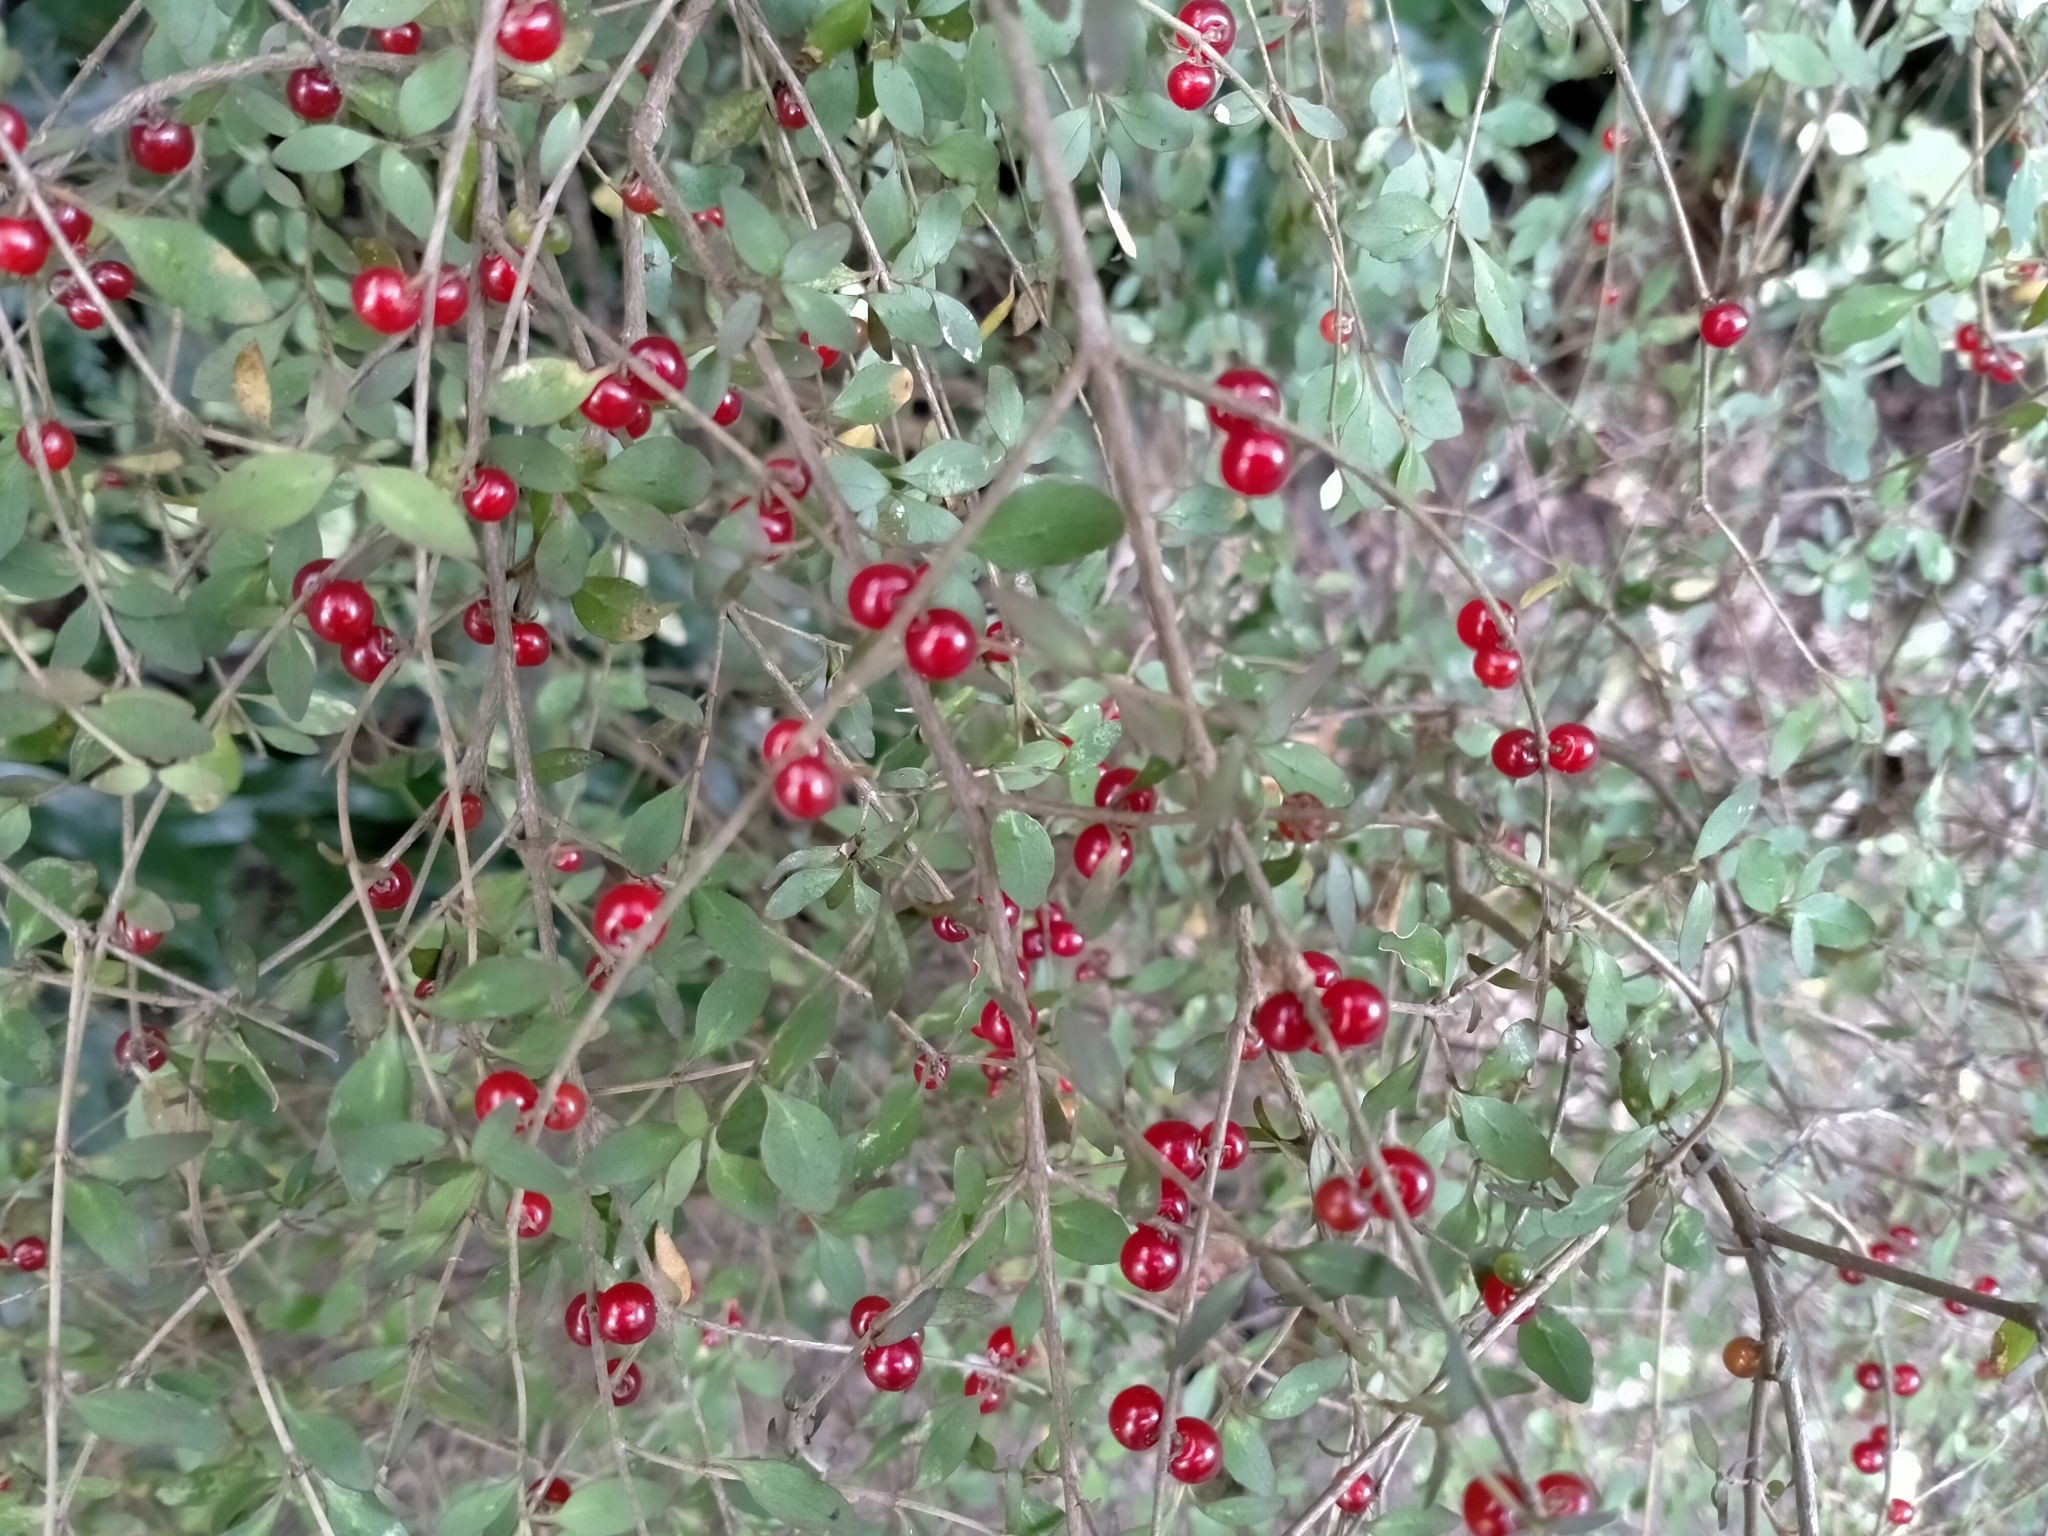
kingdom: Plantae
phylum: Tracheophyta
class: Magnoliopsida
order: Gentianales
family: Rubiaceae
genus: Coprosma
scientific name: Coprosma rhamnoides
